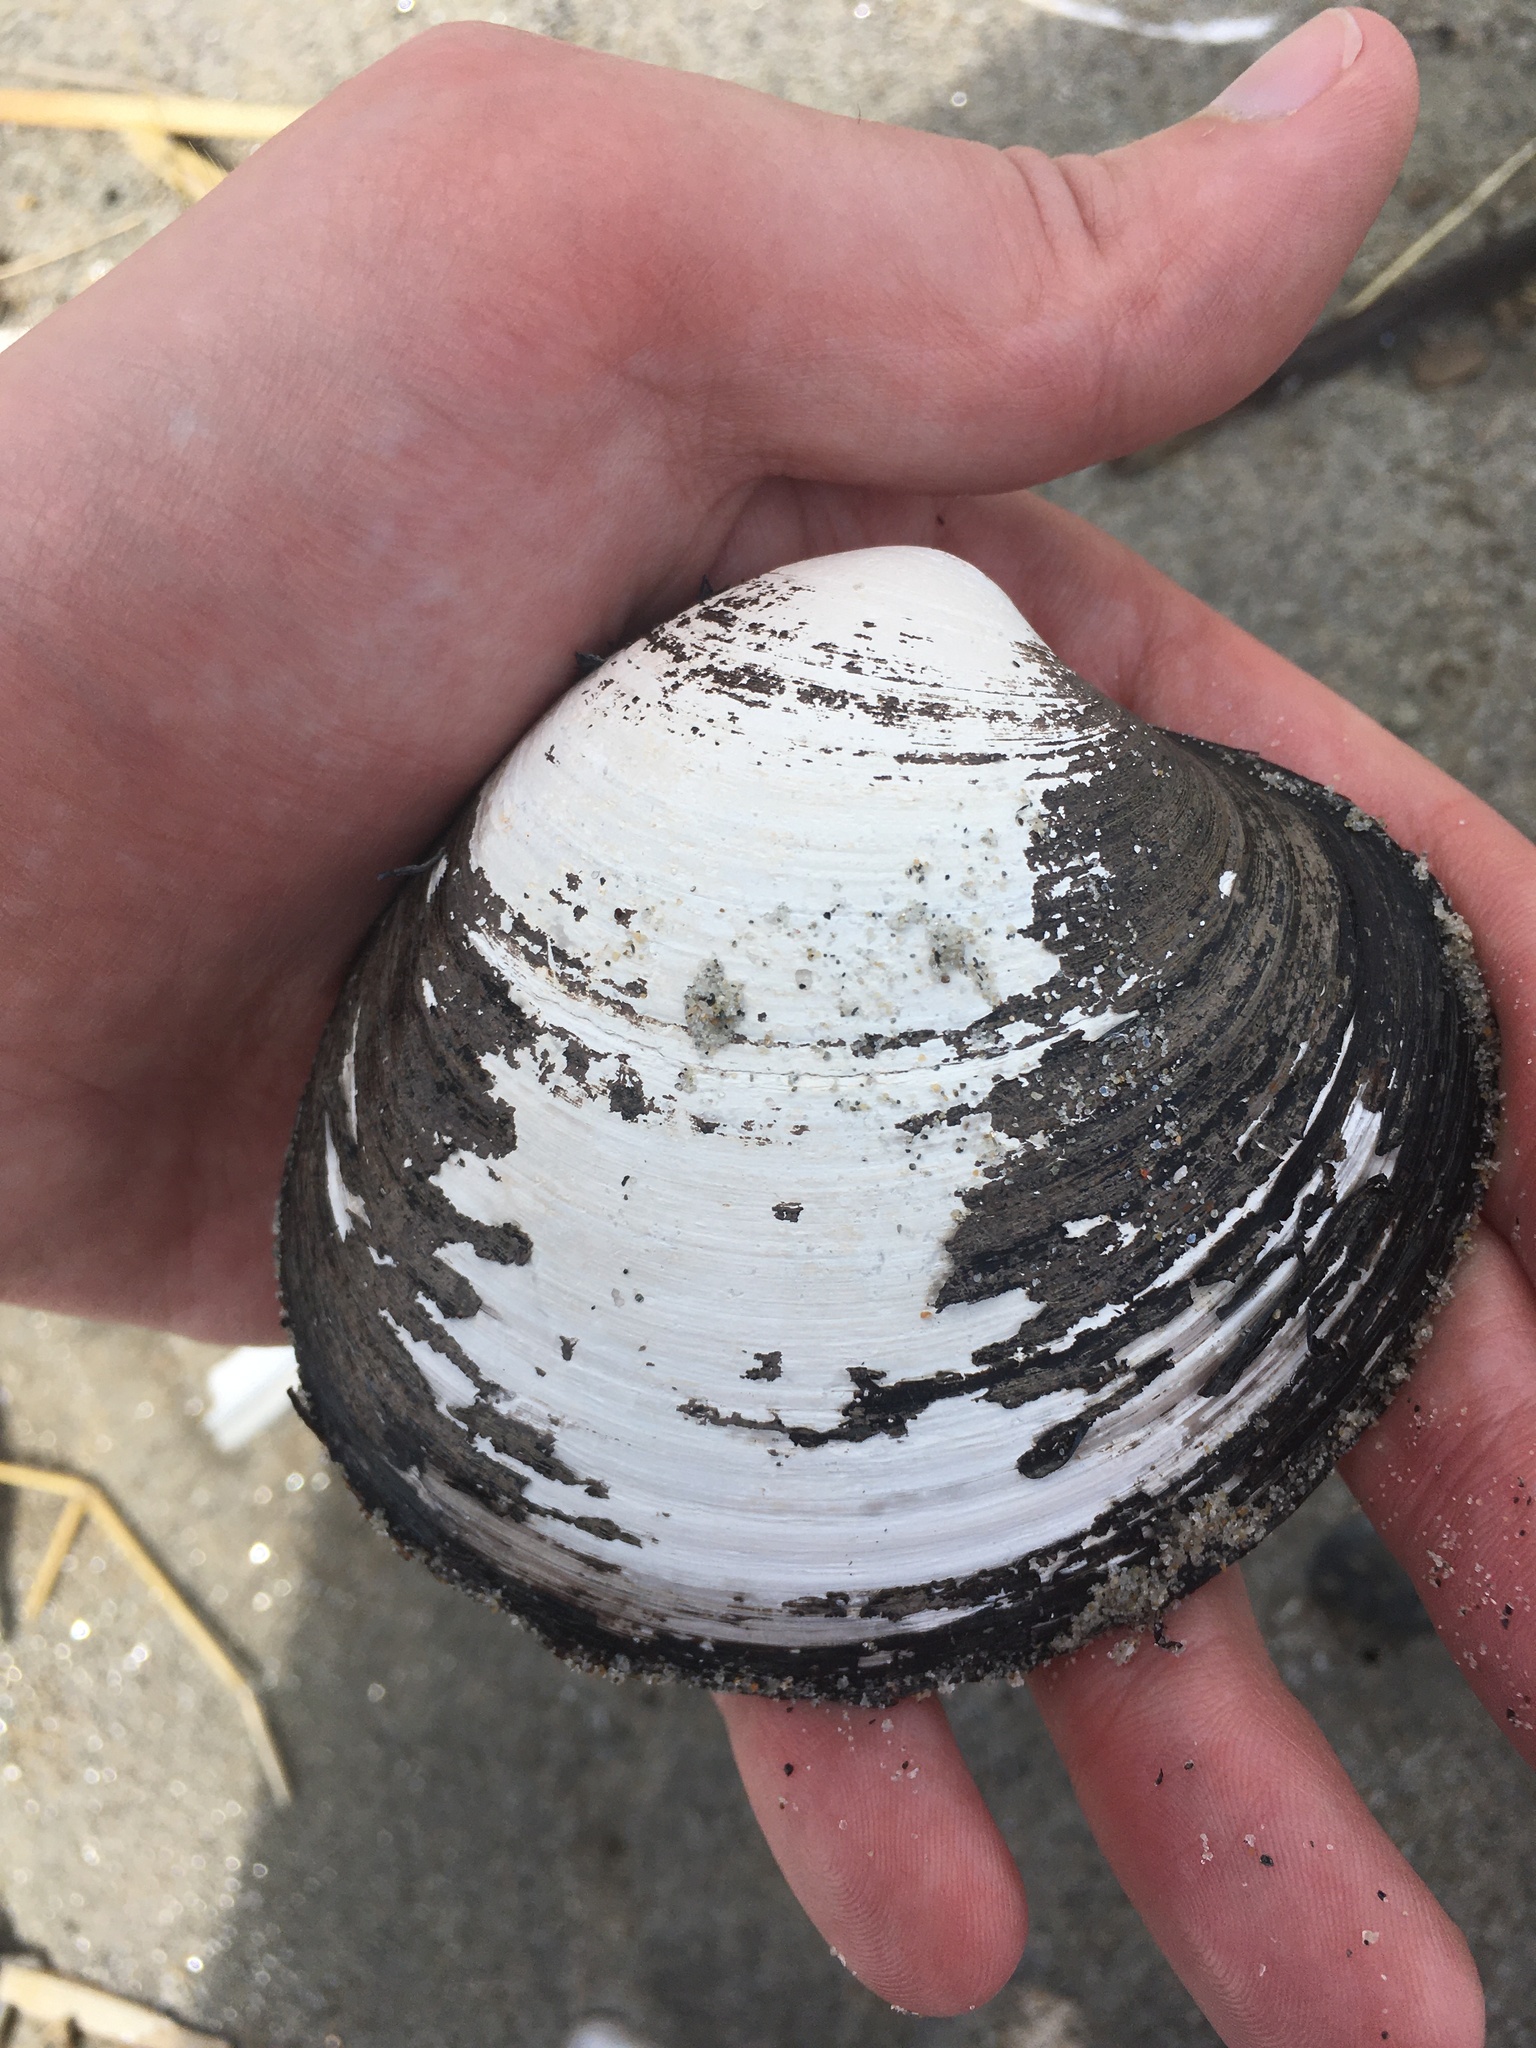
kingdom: Animalia
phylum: Mollusca
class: Bivalvia
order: Venerida
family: Arcticidae
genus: Arctica
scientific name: Arctica islandica
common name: Icelandic cyprine
